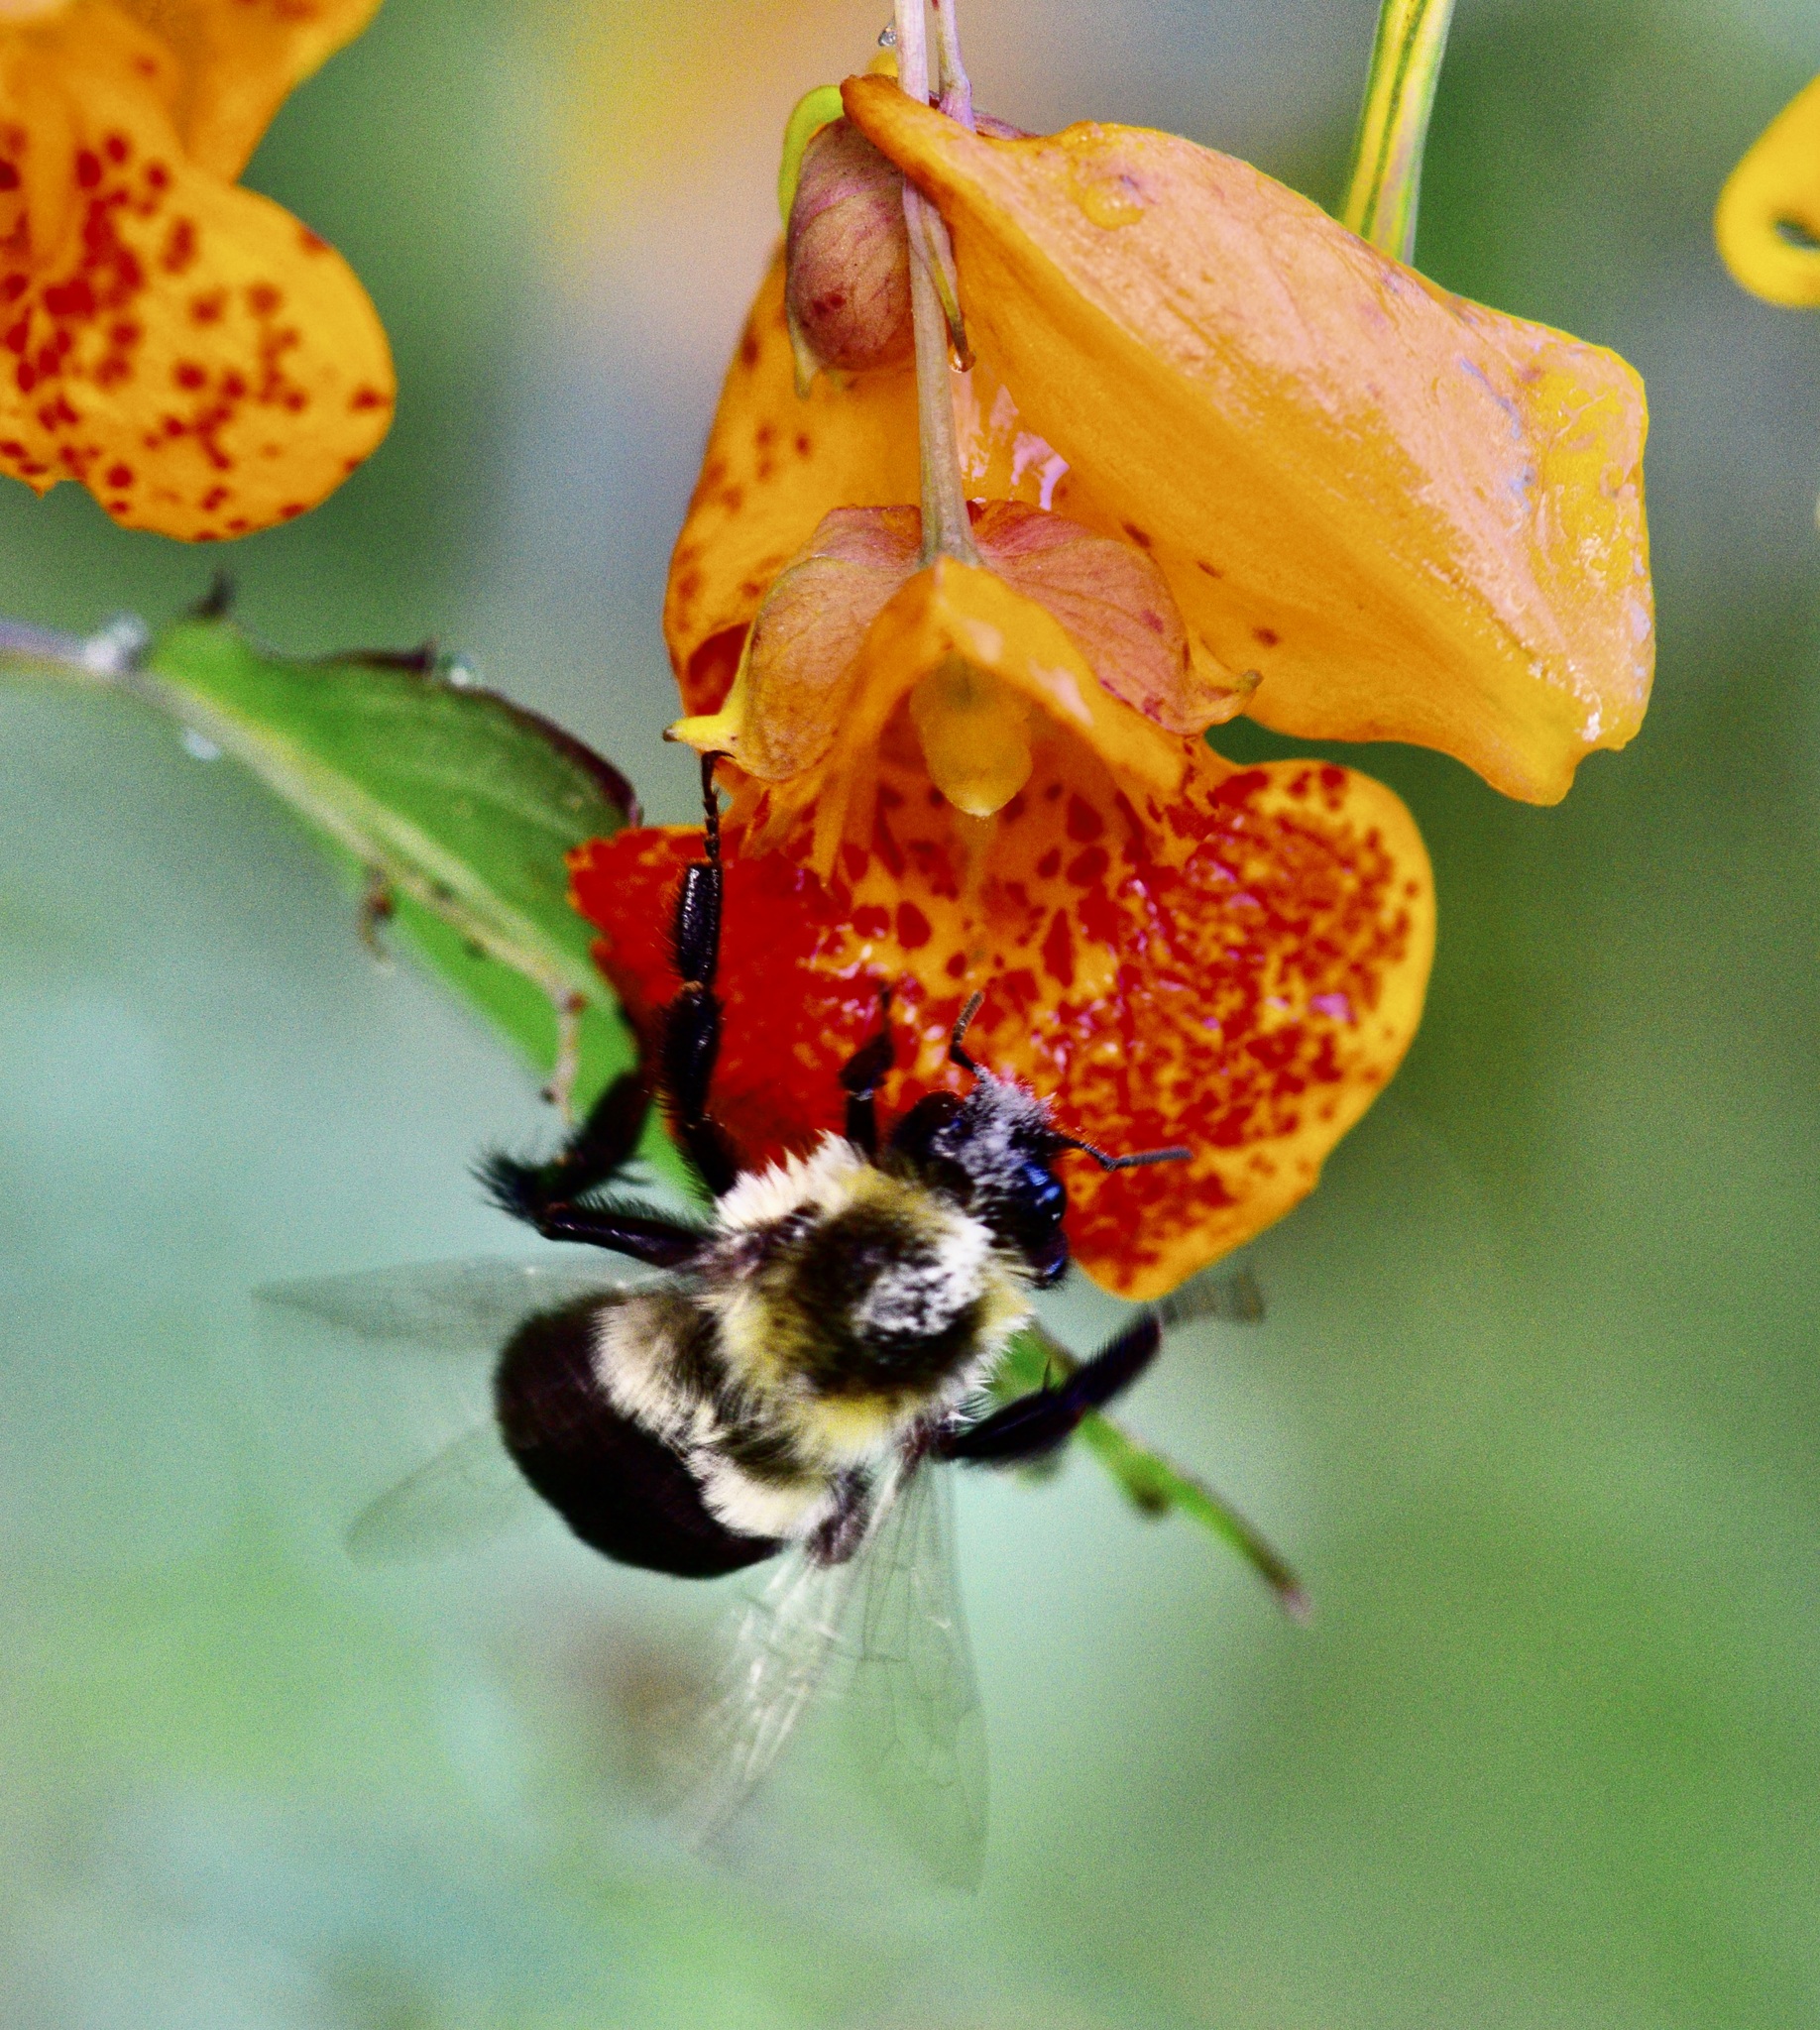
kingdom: Animalia
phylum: Arthropoda
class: Insecta
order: Hymenoptera
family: Apidae
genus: Bombus
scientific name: Bombus impatiens
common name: Common eastern bumble bee
